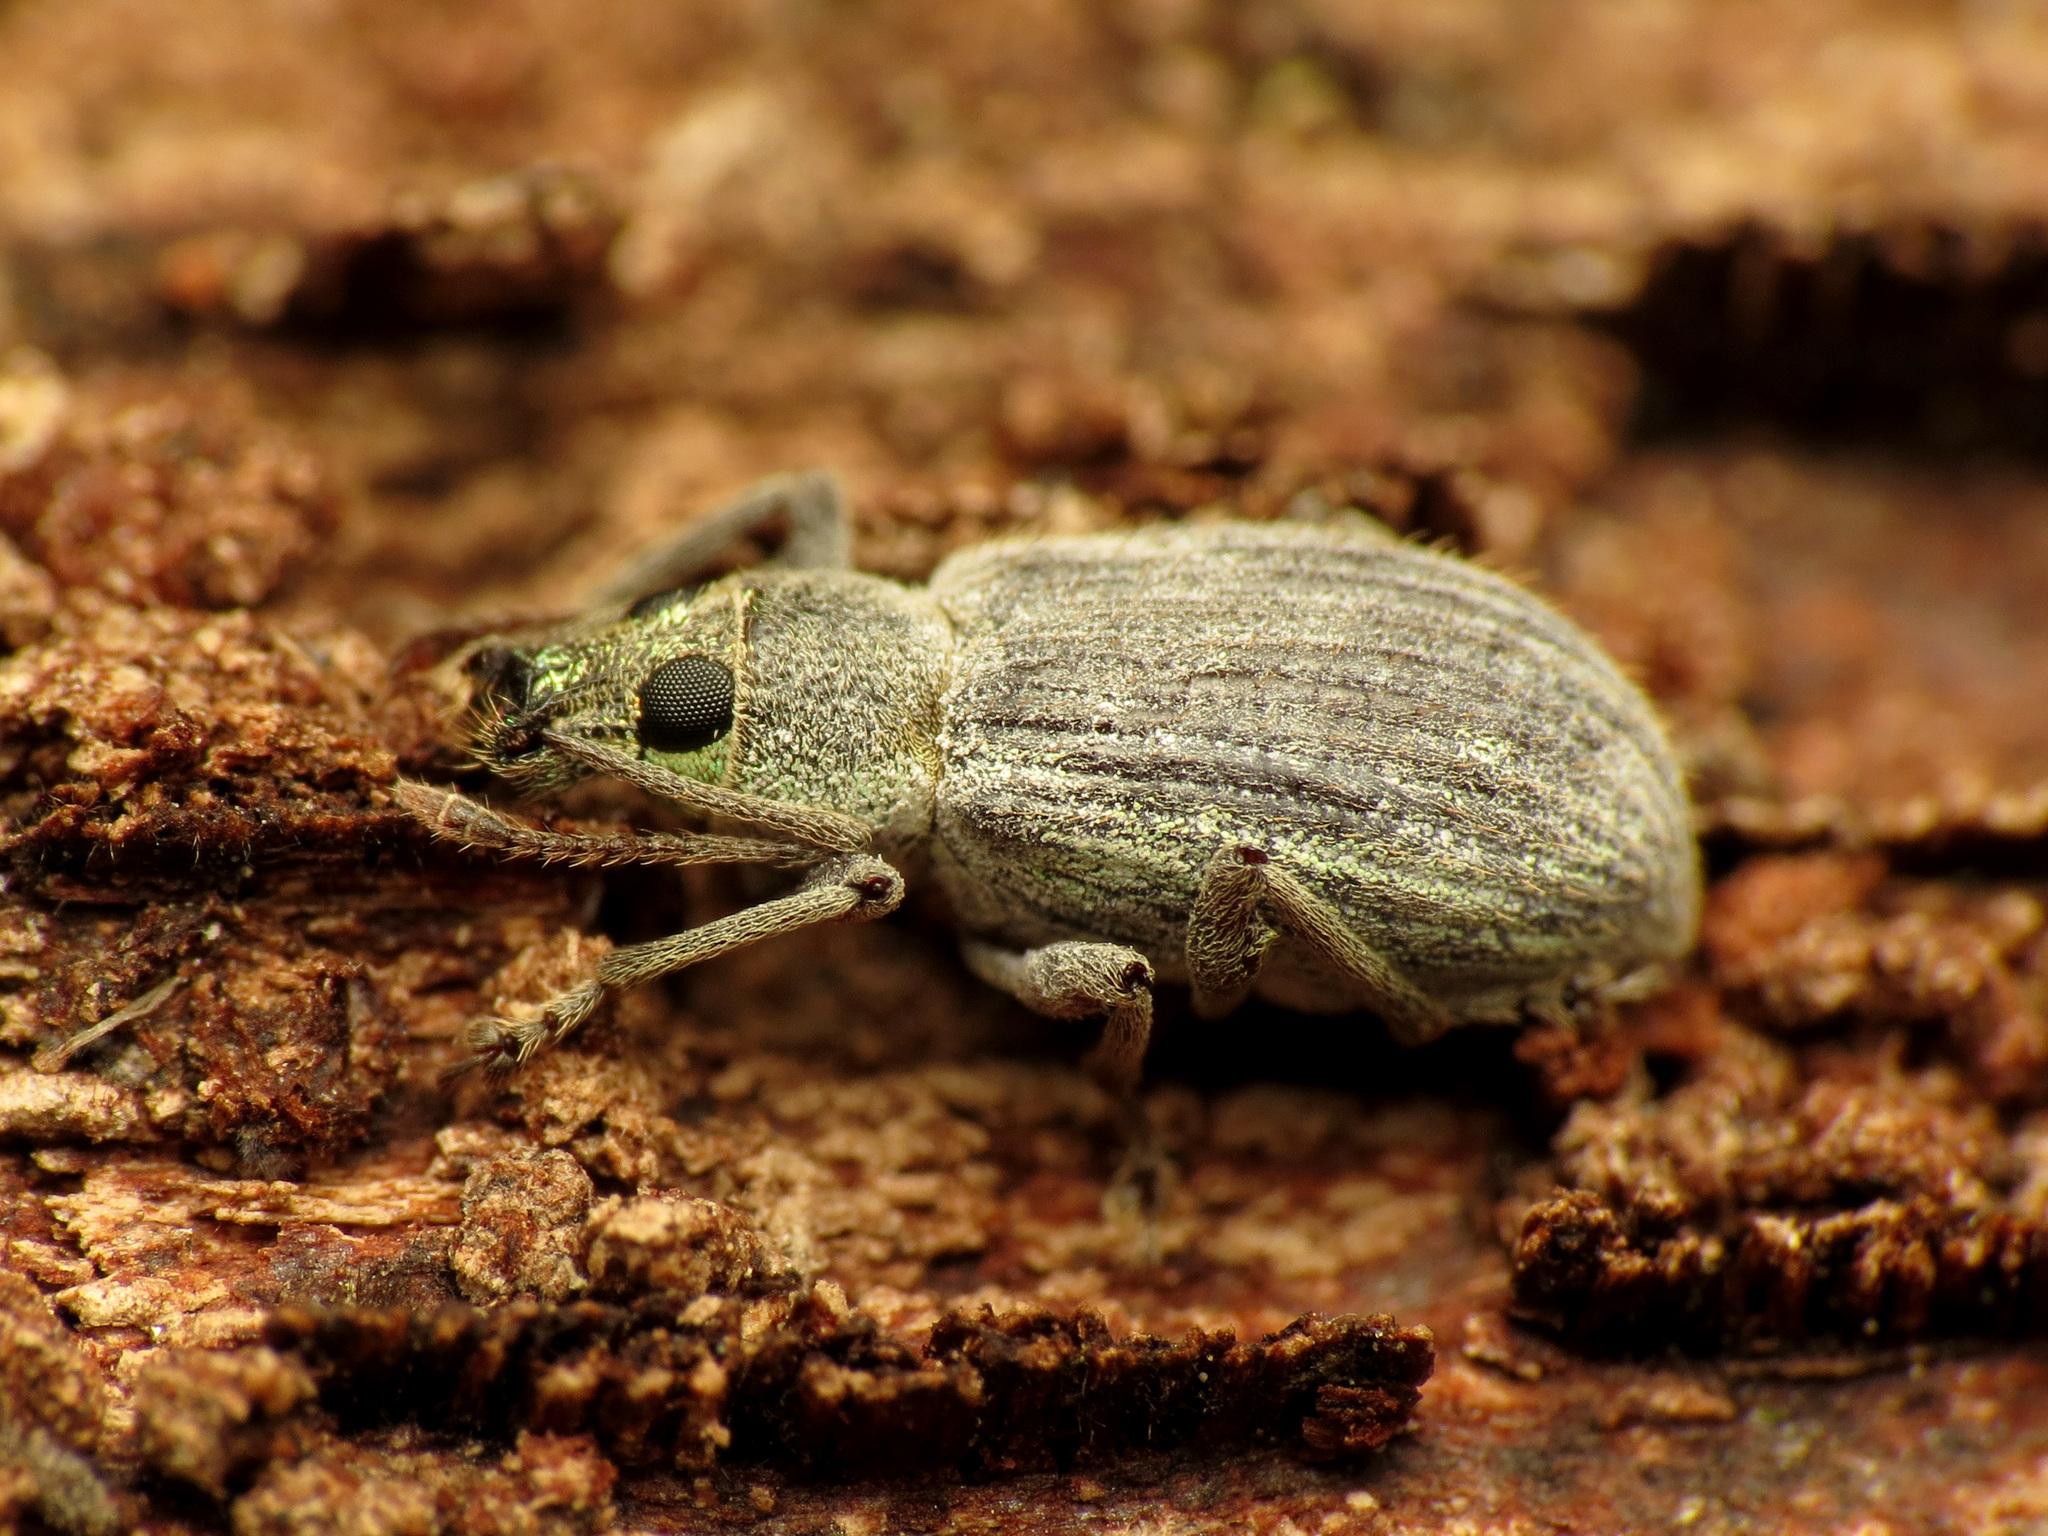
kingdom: Animalia
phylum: Arthropoda
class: Insecta
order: Coleoptera
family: Curculionidae
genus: Cyrtepistomus
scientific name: Cyrtepistomus castaneus
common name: Weevil
